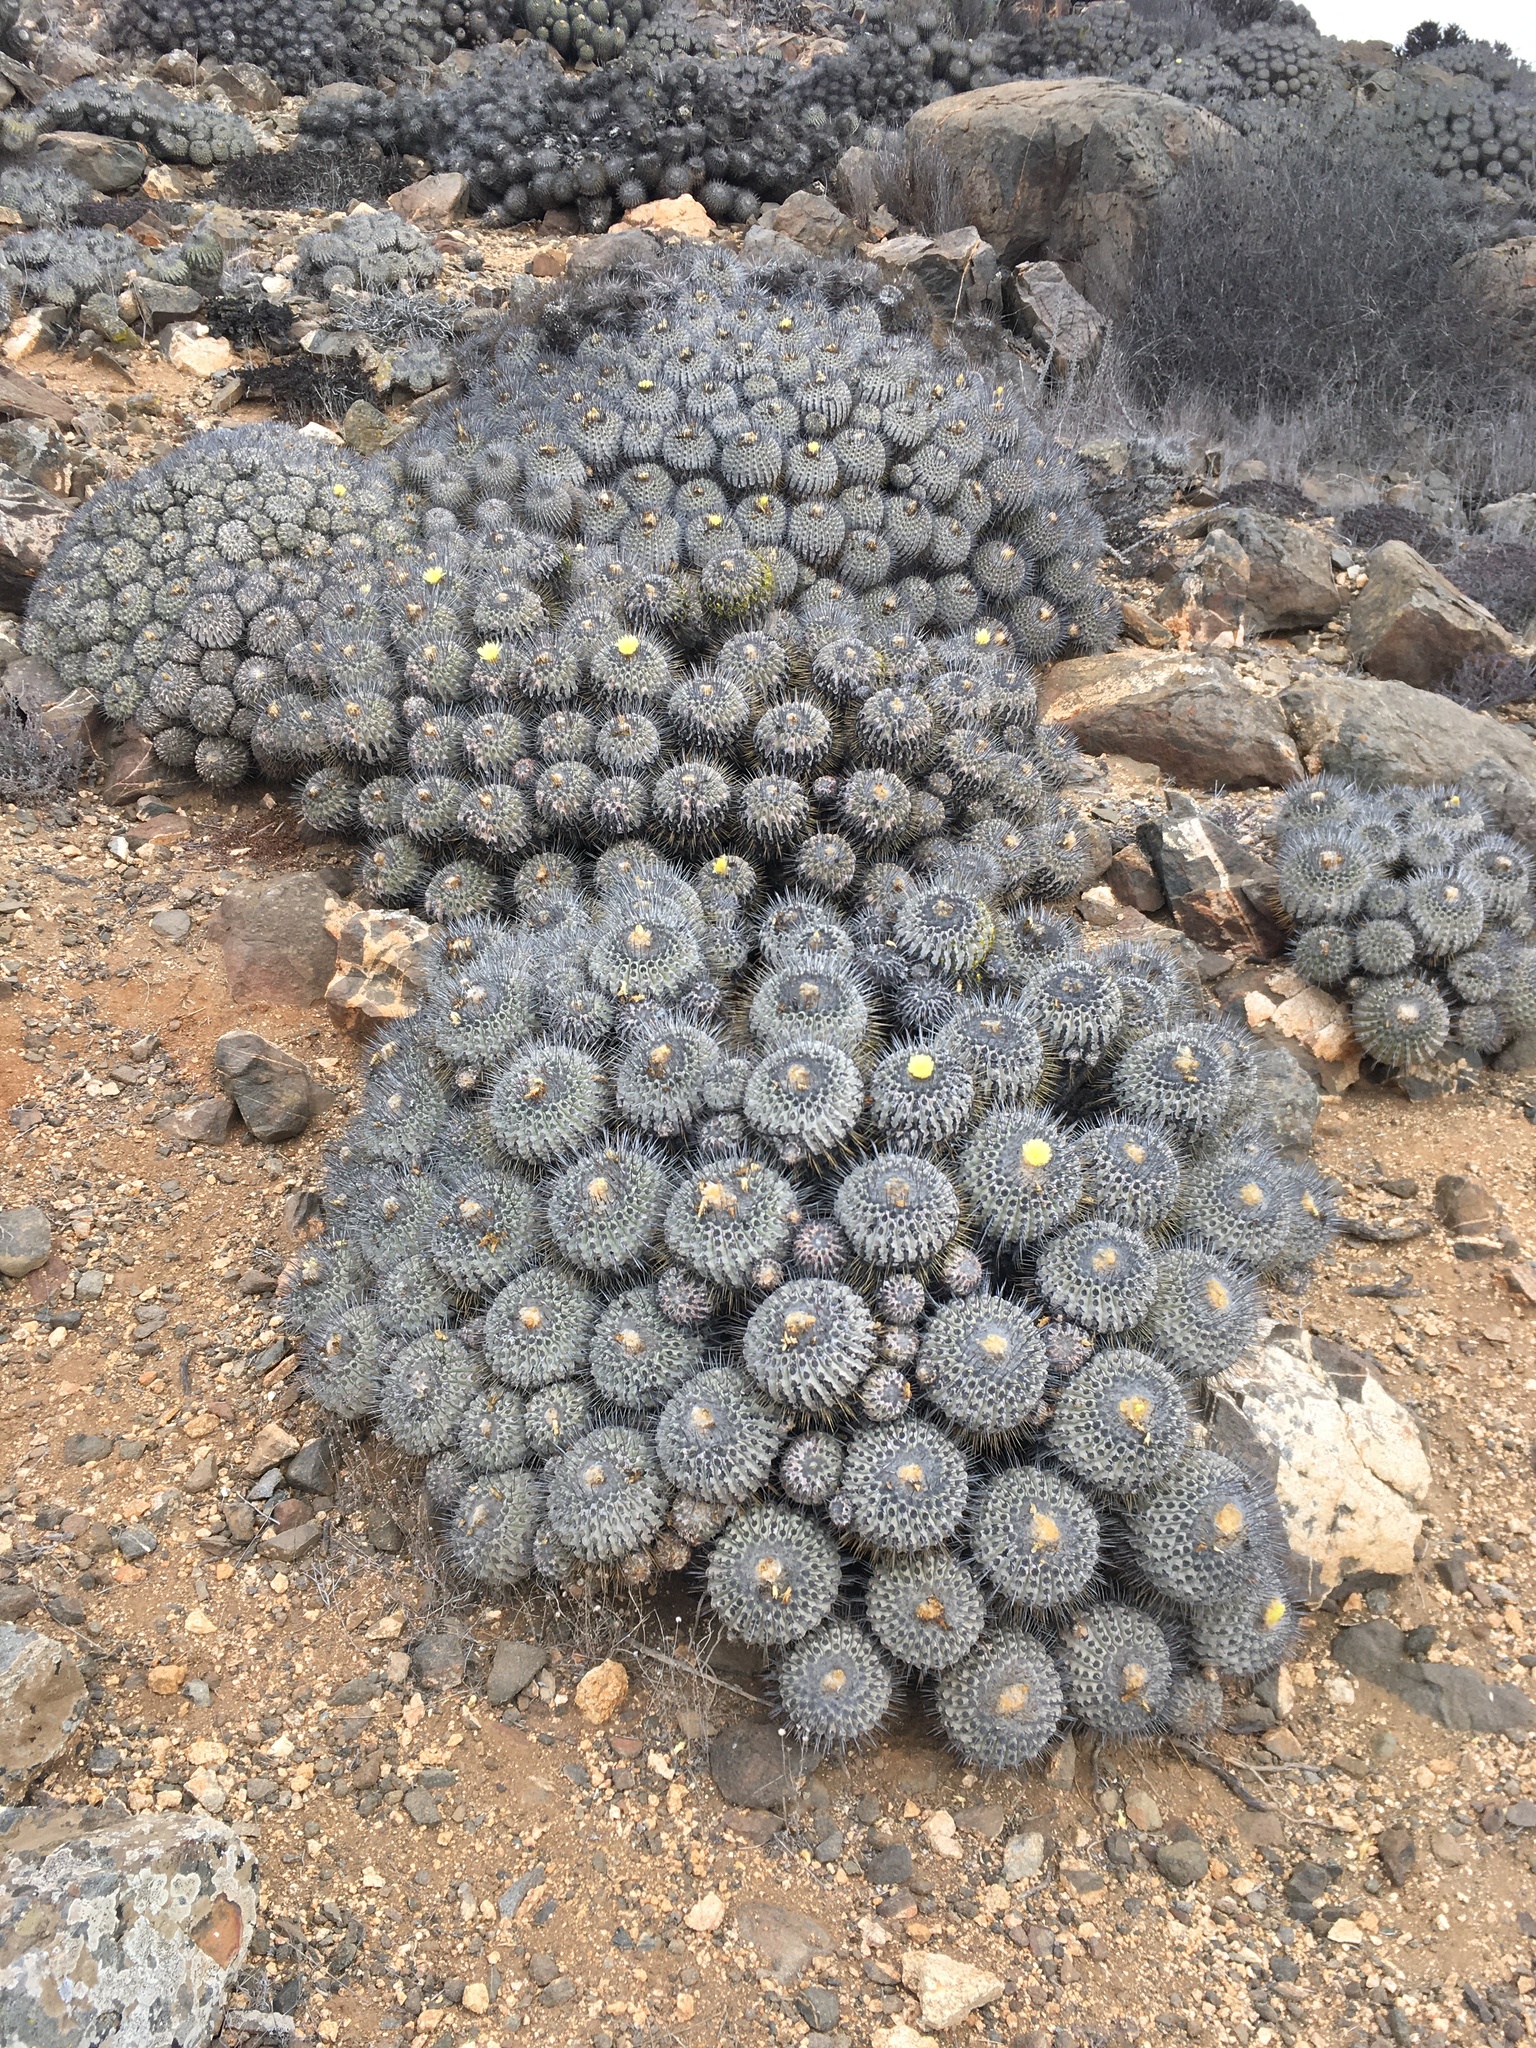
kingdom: Plantae
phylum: Tracheophyta
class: Magnoliopsida
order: Caryophyllales
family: Cactaceae
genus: Copiapoa
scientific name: Copiapoa malletiana
